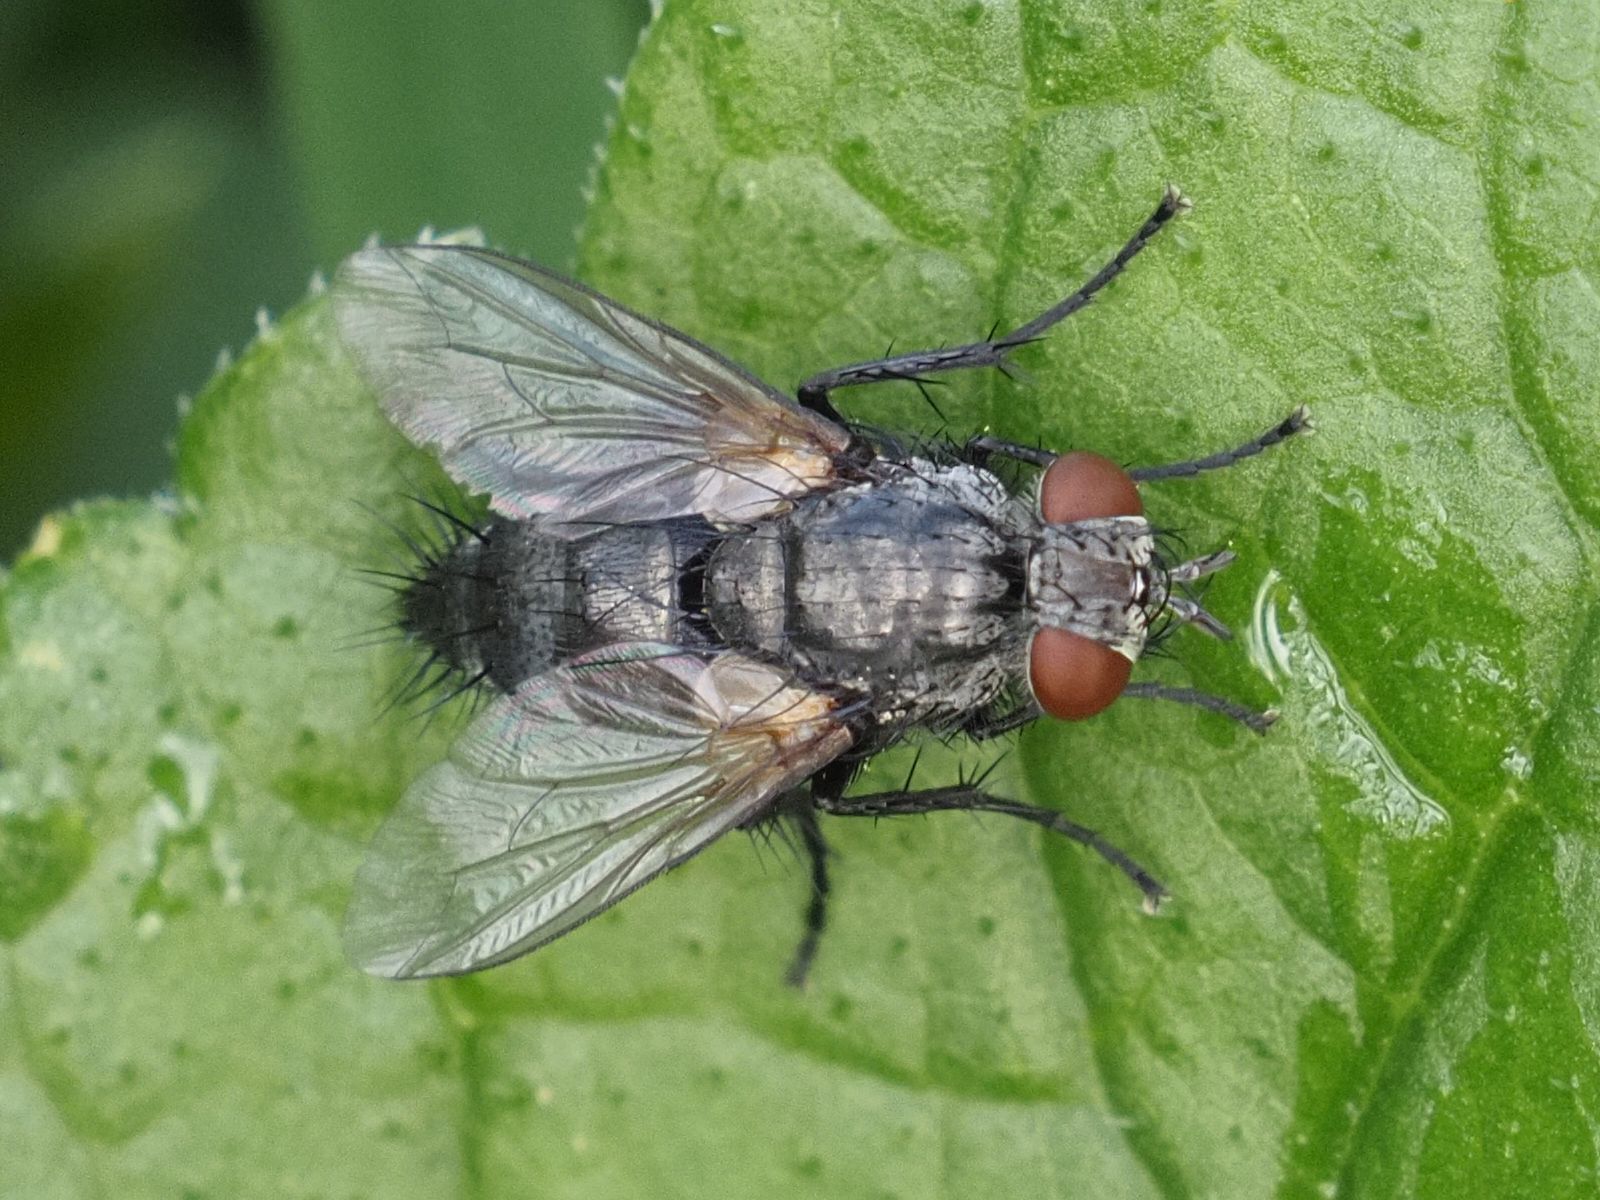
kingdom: Animalia
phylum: Arthropoda
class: Insecta
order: Diptera
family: Tachinidae
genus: Voria
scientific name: Voria ruralis
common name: Parasitic fly
